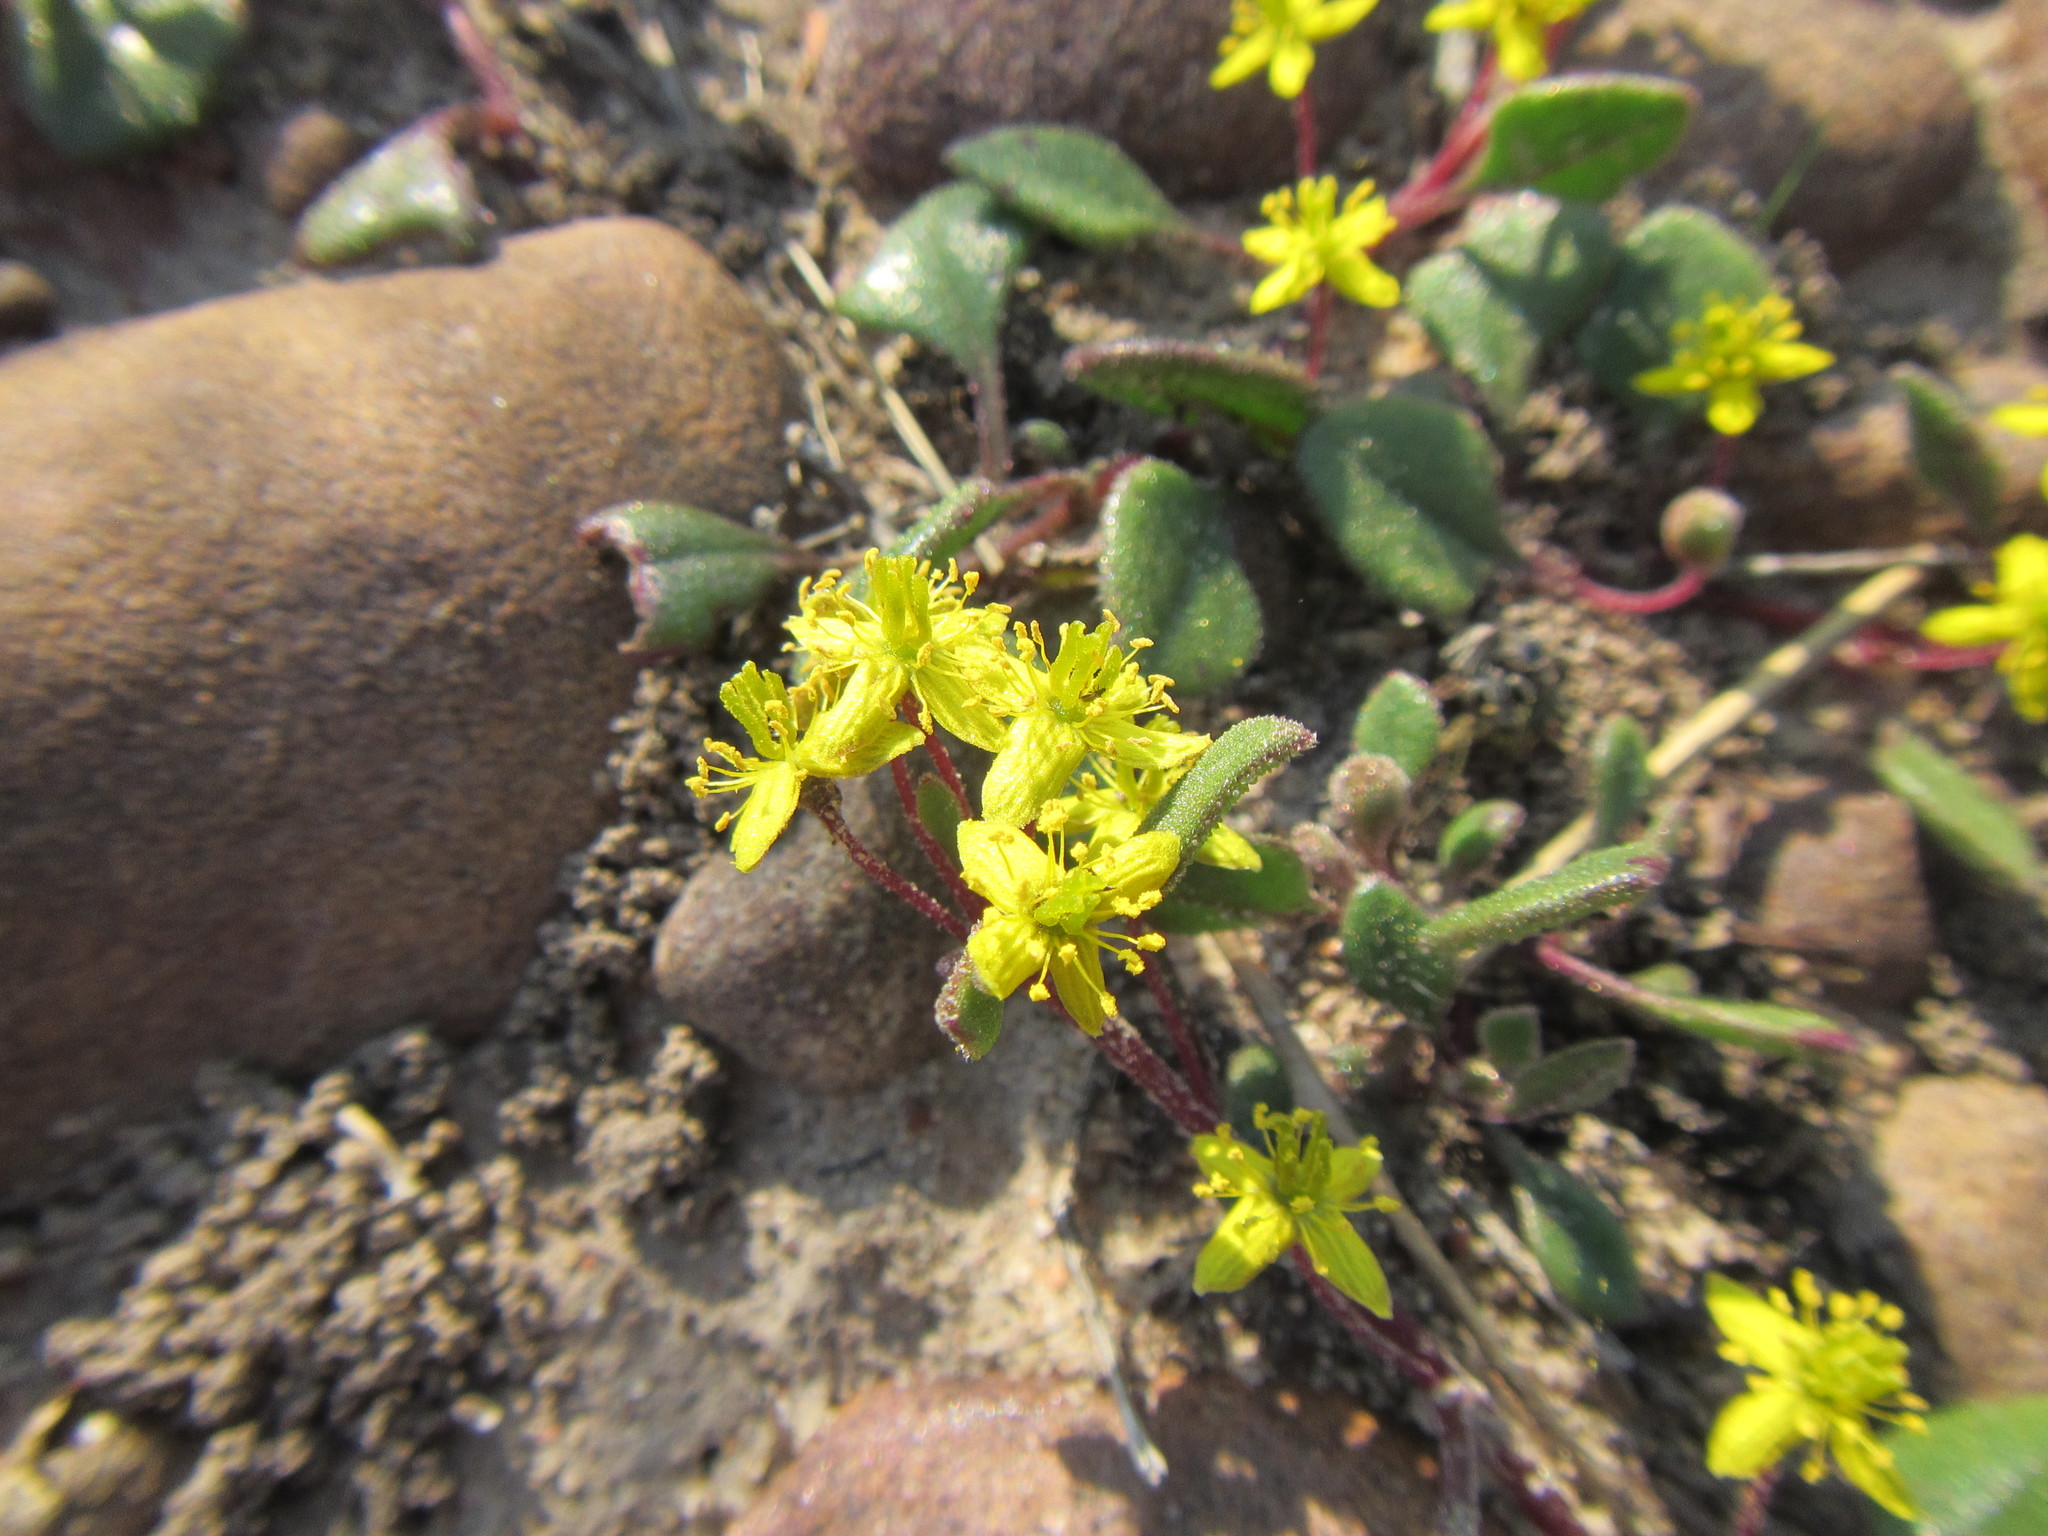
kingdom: Plantae
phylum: Tracheophyta
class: Magnoliopsida
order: Caryophyllales
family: Aizoaceae
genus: Tetragonia
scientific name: Tetragonia herbacea
